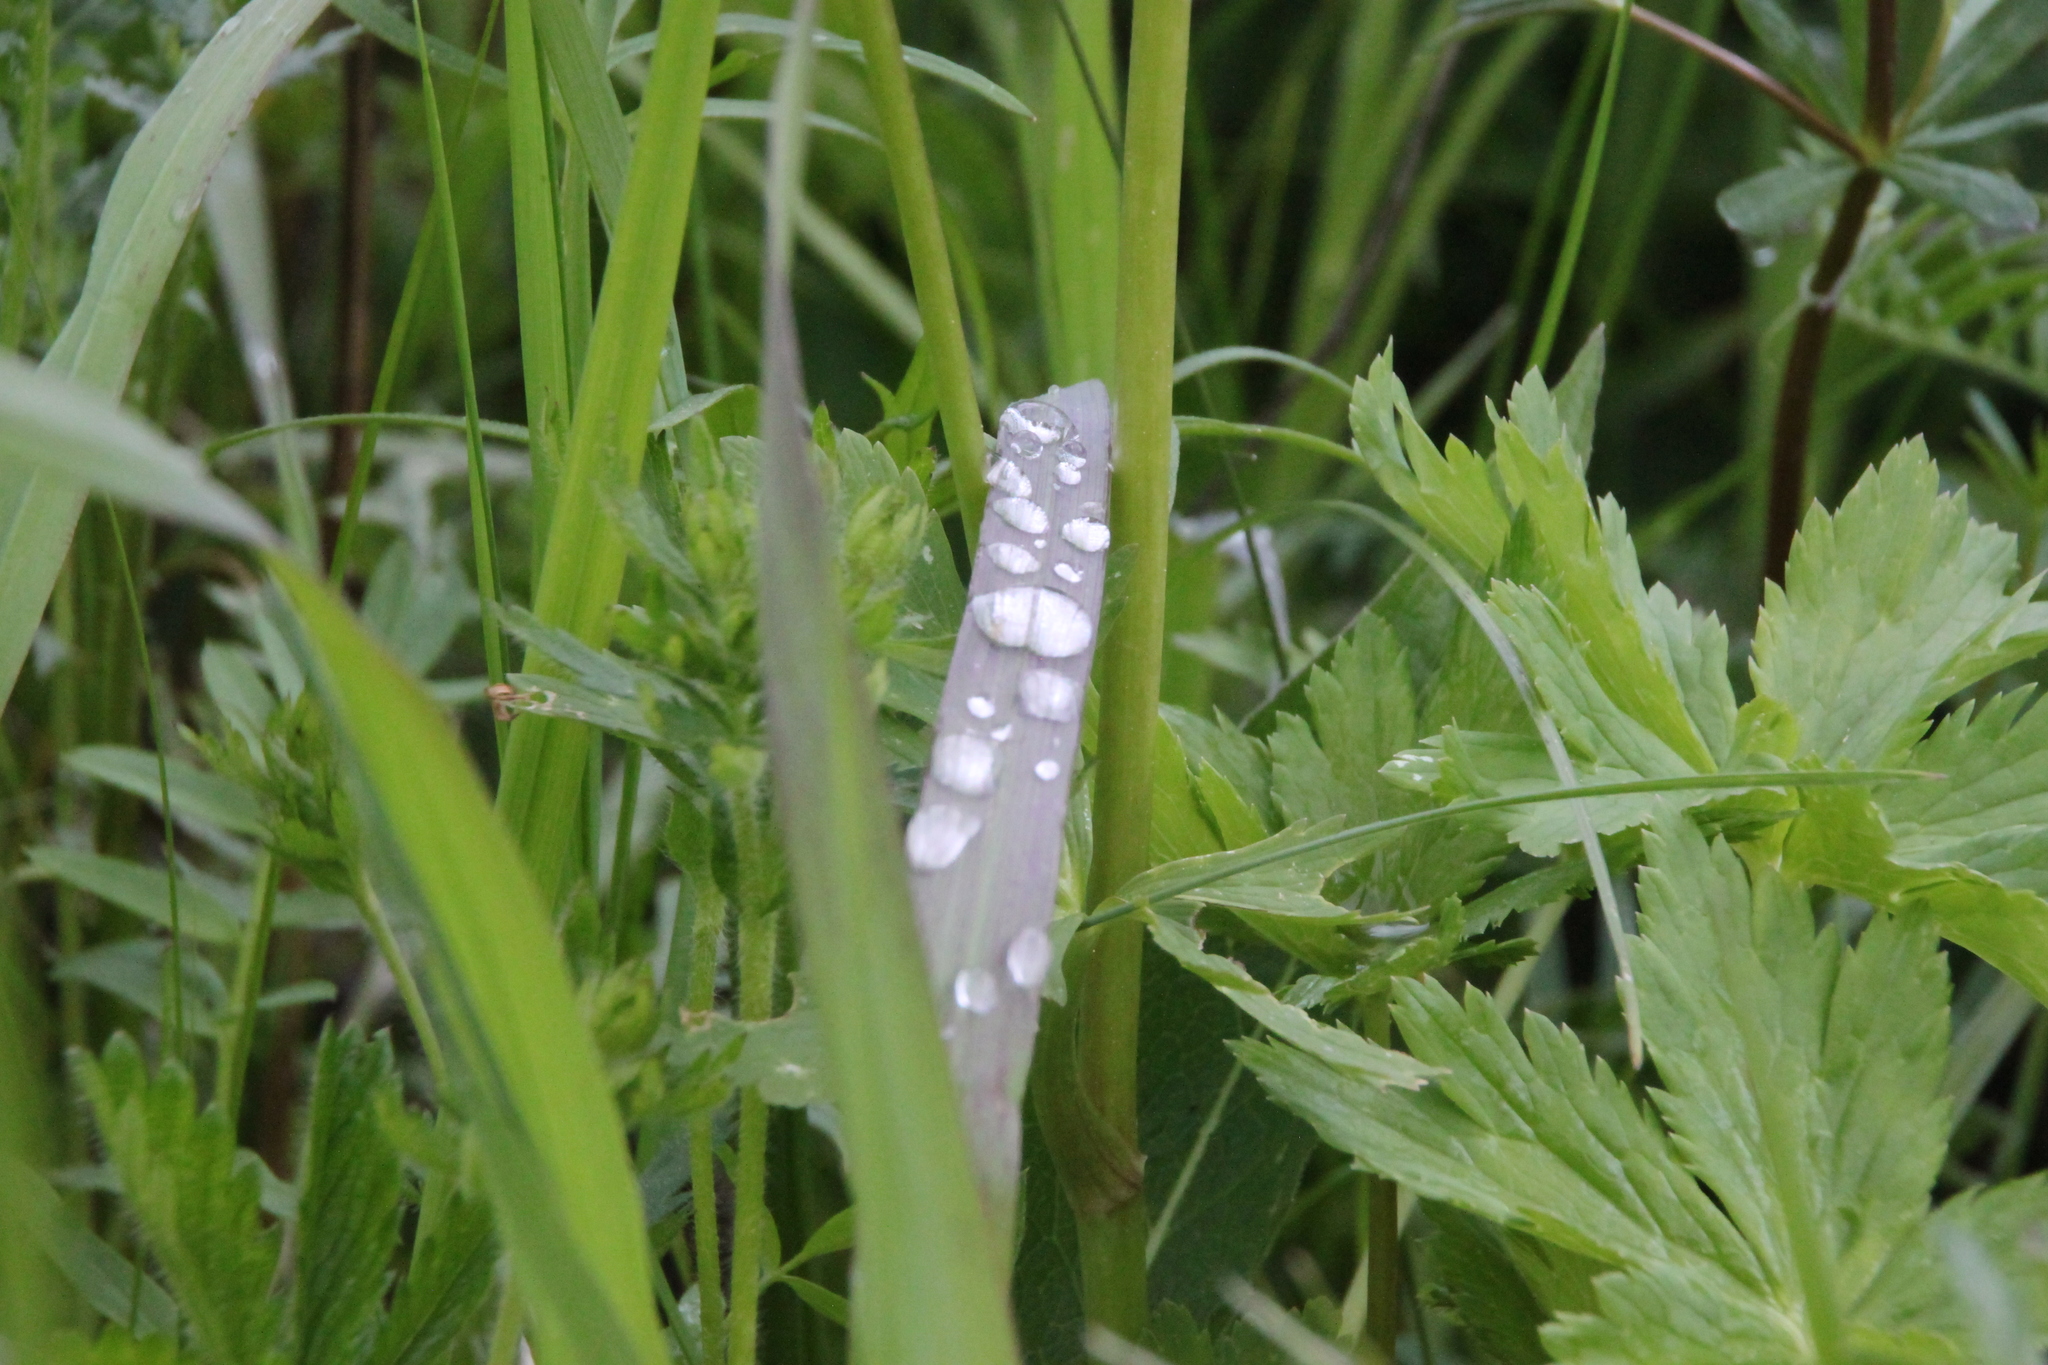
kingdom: Plantae
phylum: Tracheophyta
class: Magnoliopsida
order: Ranunculales
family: Ranunculaceae
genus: Trollius
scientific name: Trollius europaeus
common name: European globeflower
